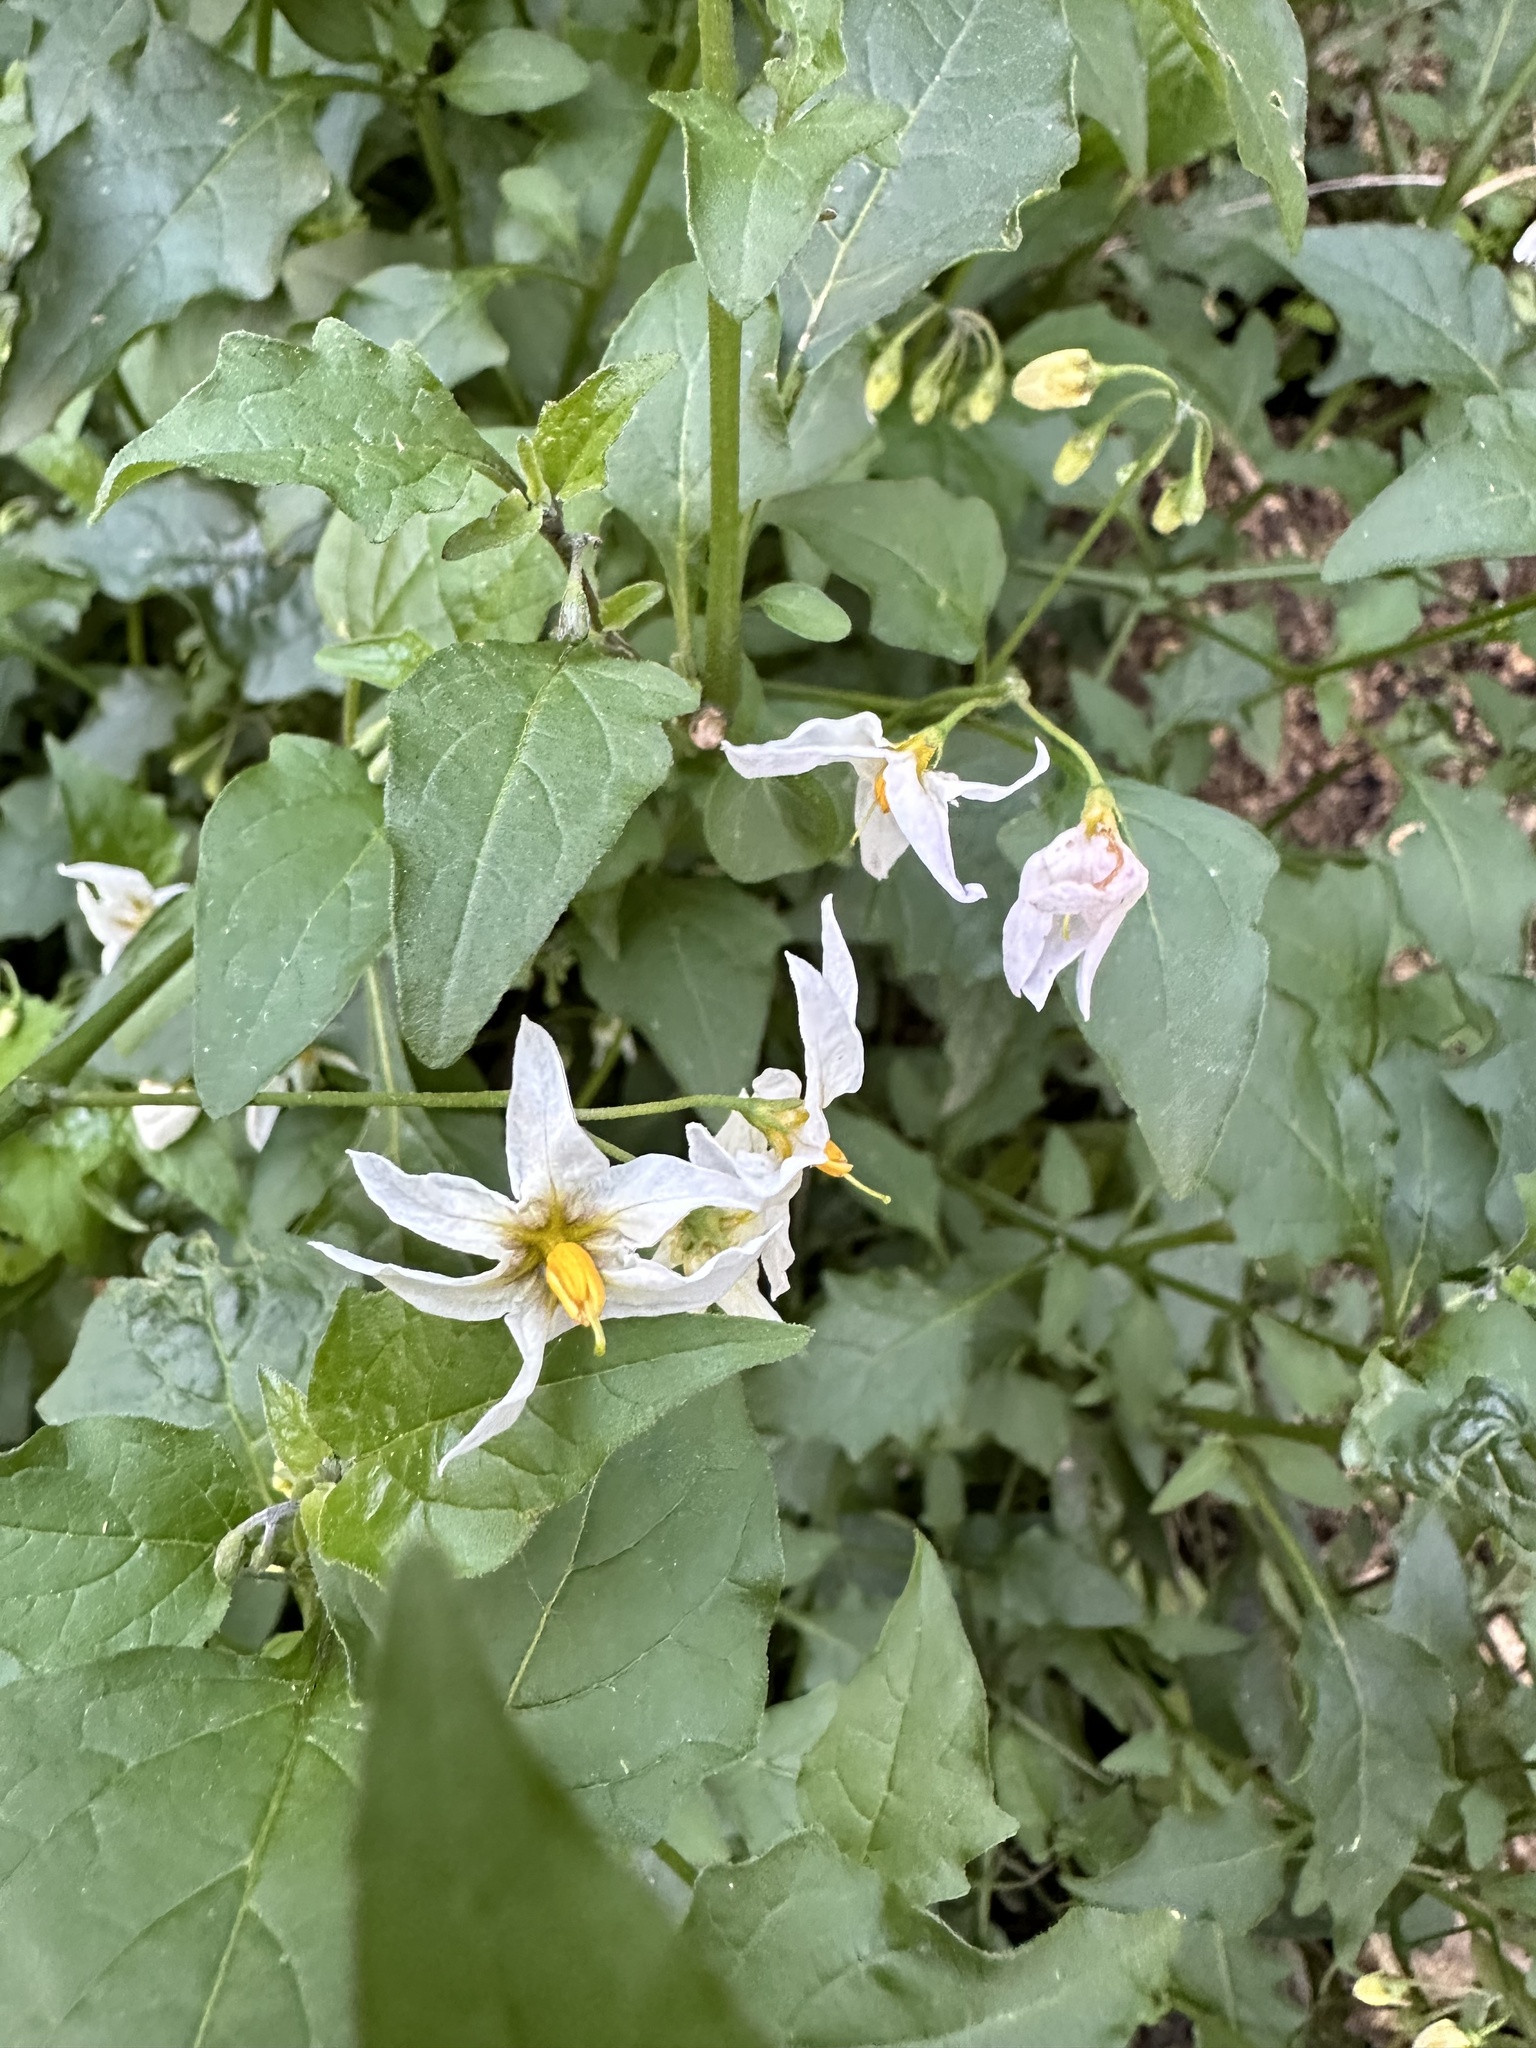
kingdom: Plantae
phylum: Tracheophyta
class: Magnoliopsida
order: Solanales
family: Solanaceae
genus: Solanum
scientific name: Solanum douglasii
